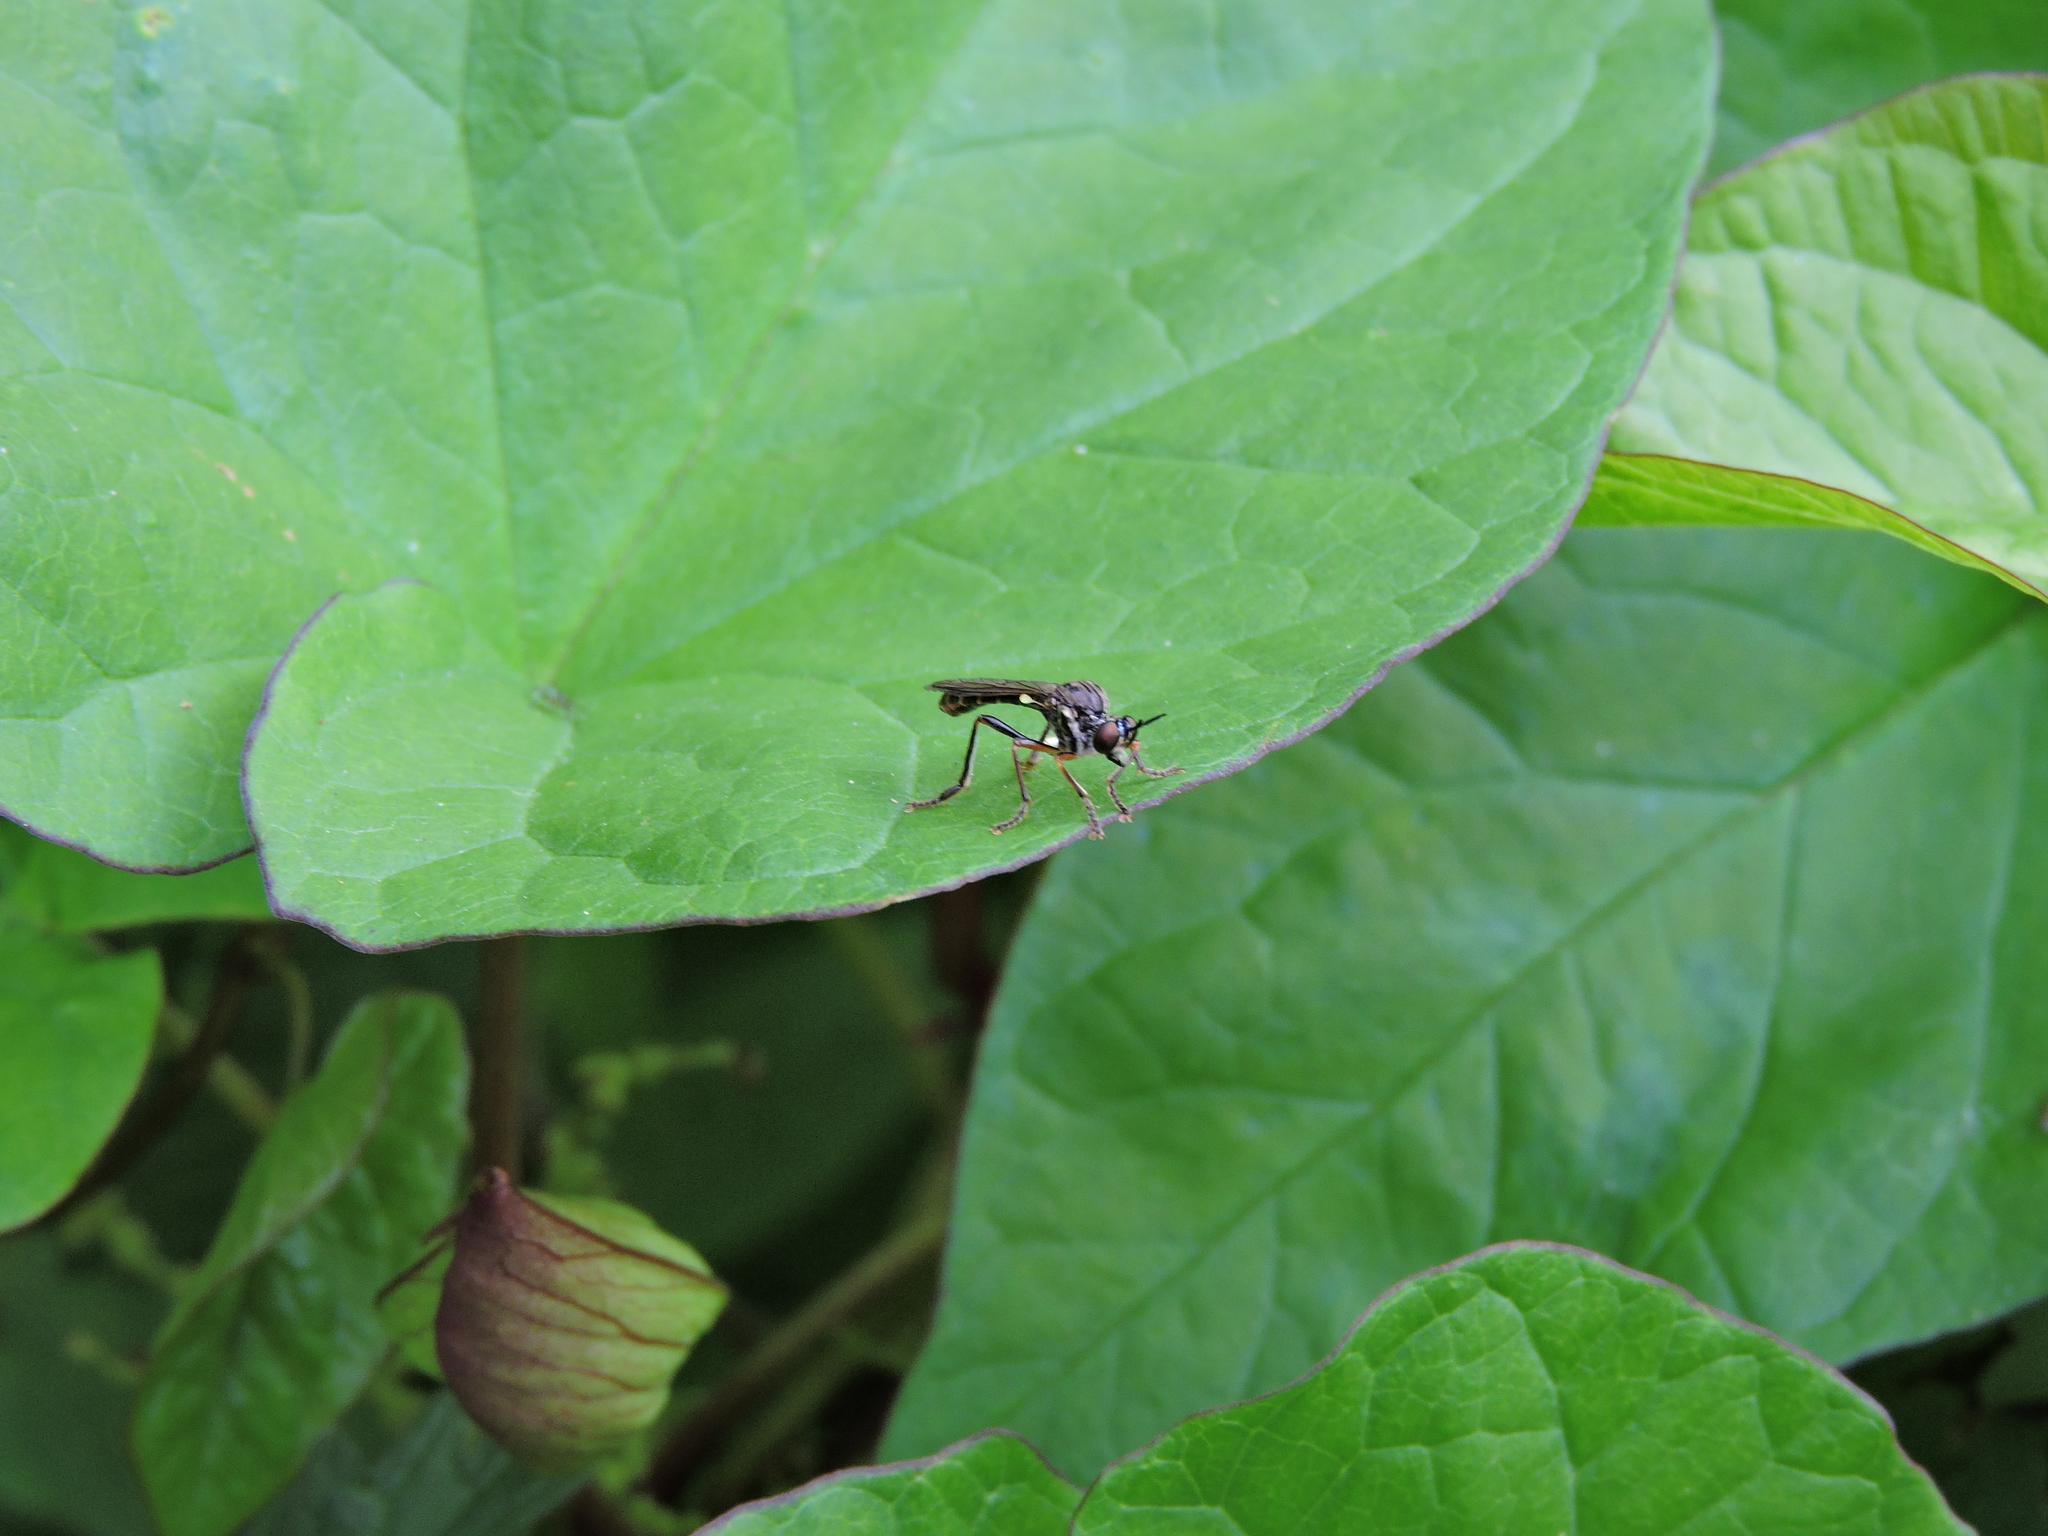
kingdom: Animalia
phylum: Arthropoda
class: Insecta
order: Diptera
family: Asilidae
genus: Dioctria
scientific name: Dioctria hyalipennis
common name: Stripe-legged robberfly
